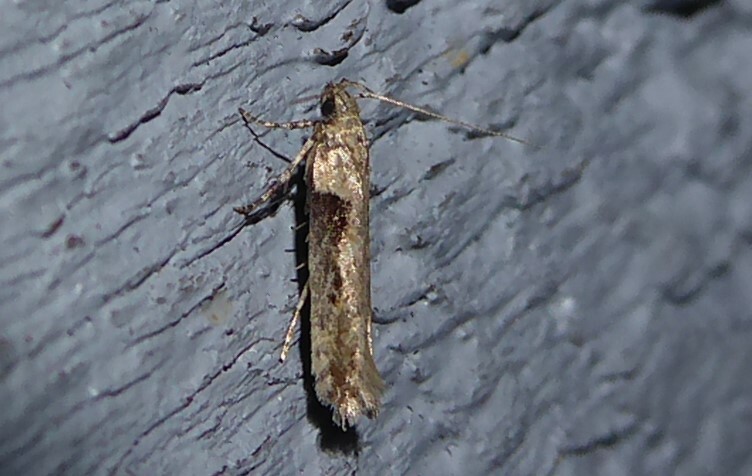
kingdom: Animalia
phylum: Arthropoda
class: Insecta
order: Lepidoptera
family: Gelechiidae
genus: Symmetrischema
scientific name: Symmetrischema tangolias
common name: Moth
